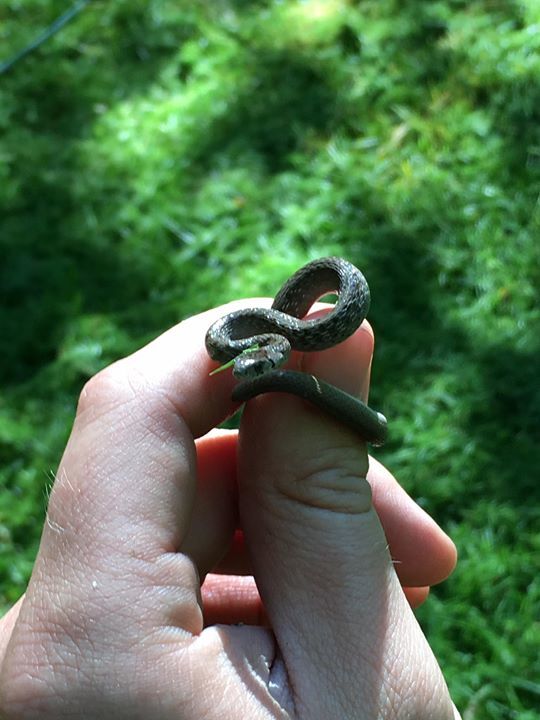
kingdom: Animalia
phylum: Chordata
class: Squamata
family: Colubridae
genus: Storeria
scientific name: Storeria dekayi
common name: (dekay’s) brown snake
